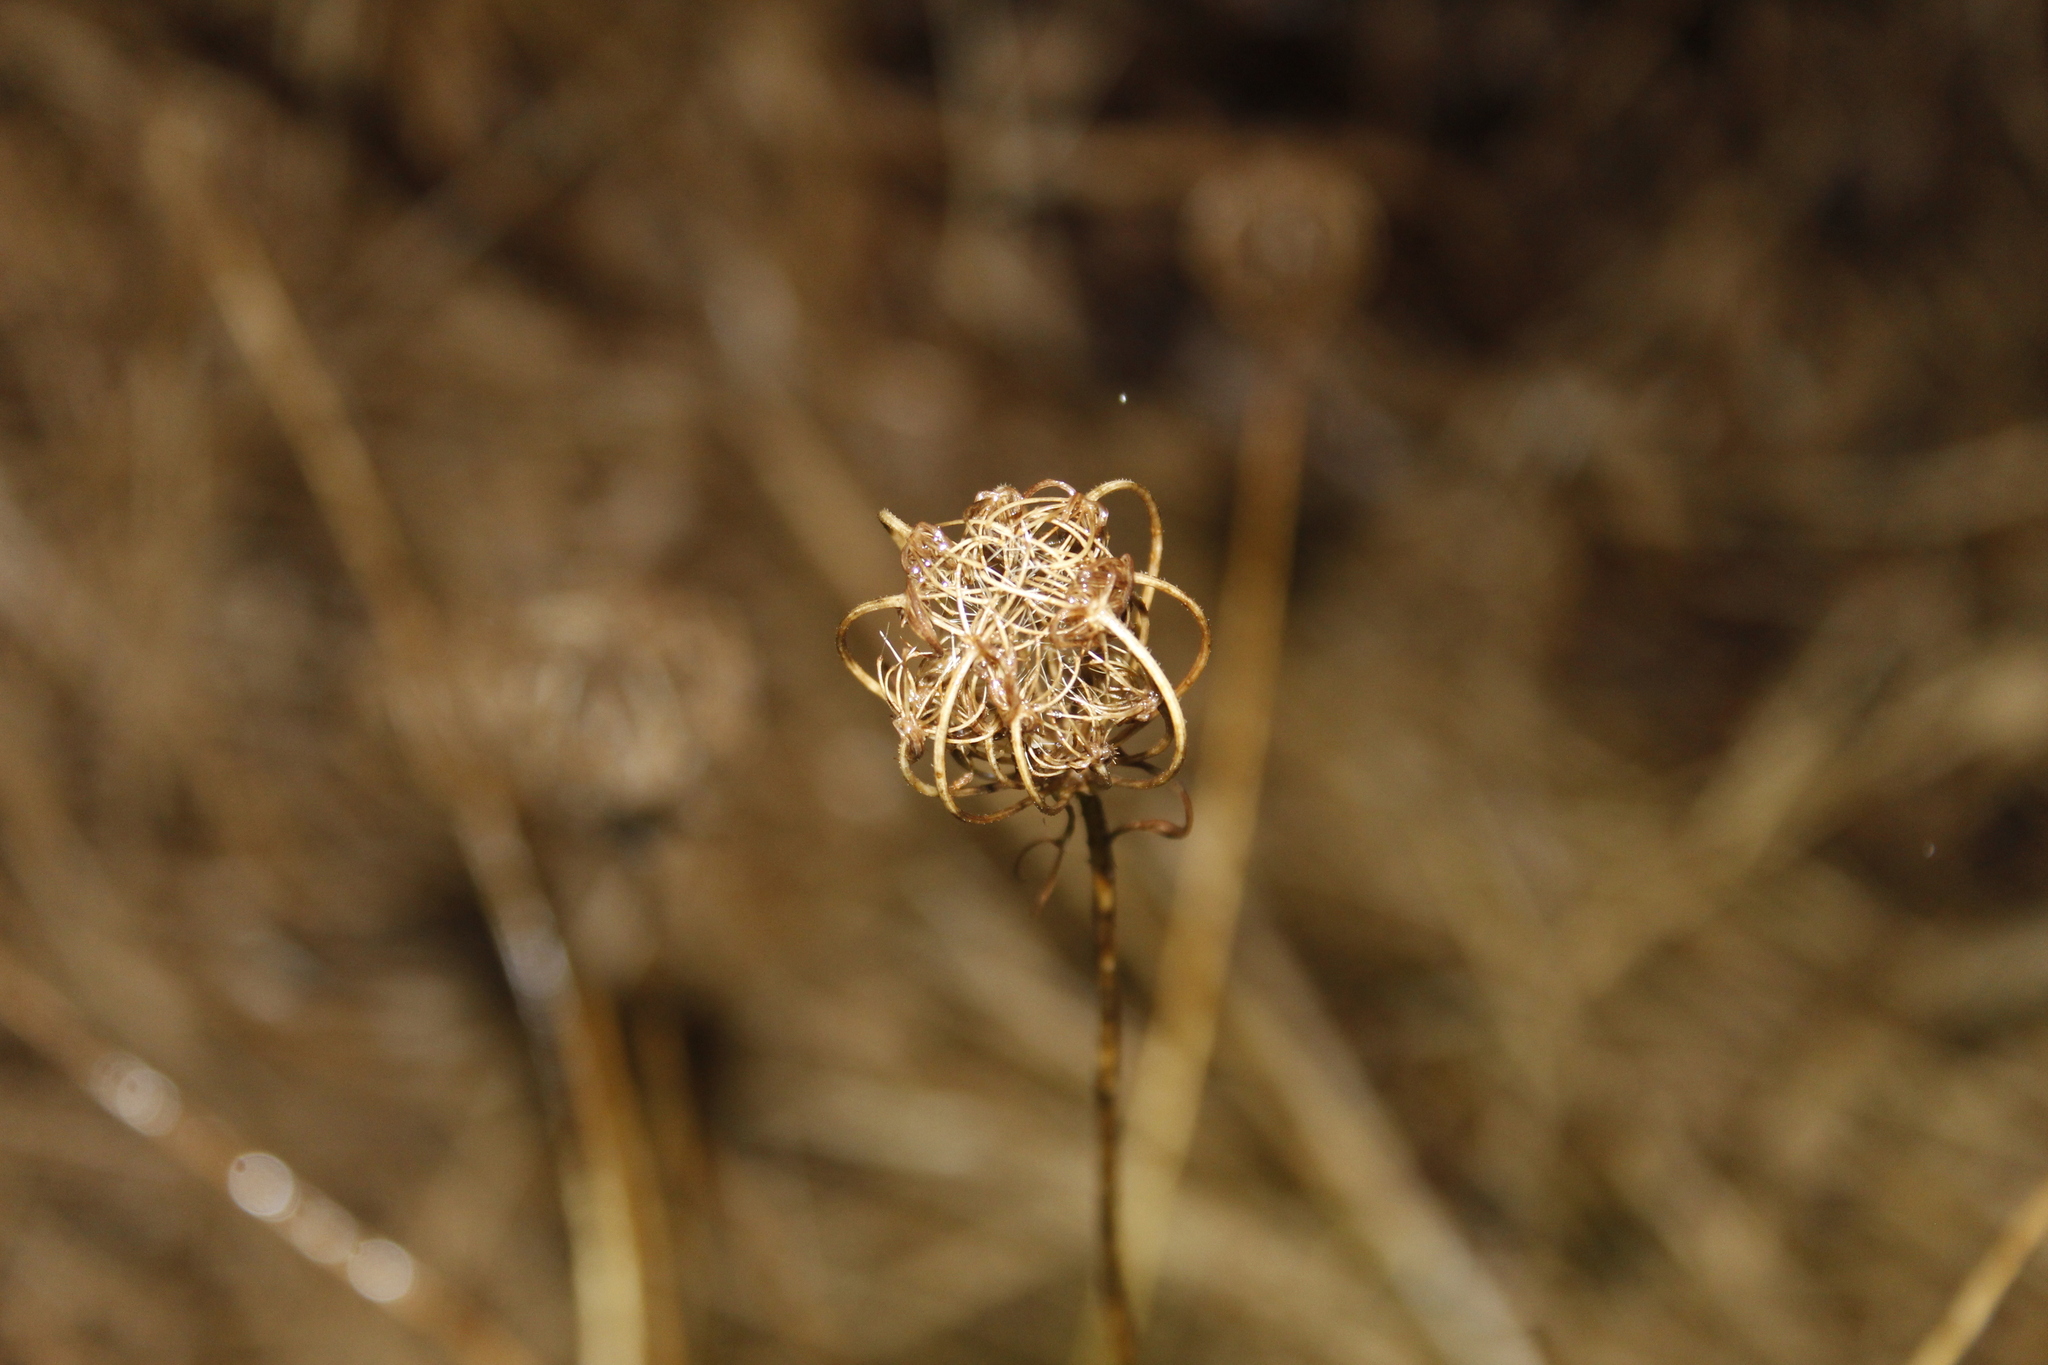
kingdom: Plantae
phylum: Tracheophyta
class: Magnoliopsida
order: Apiales
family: Apiaceae
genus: Daucus
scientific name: Daucus carota
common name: Wild carrot
